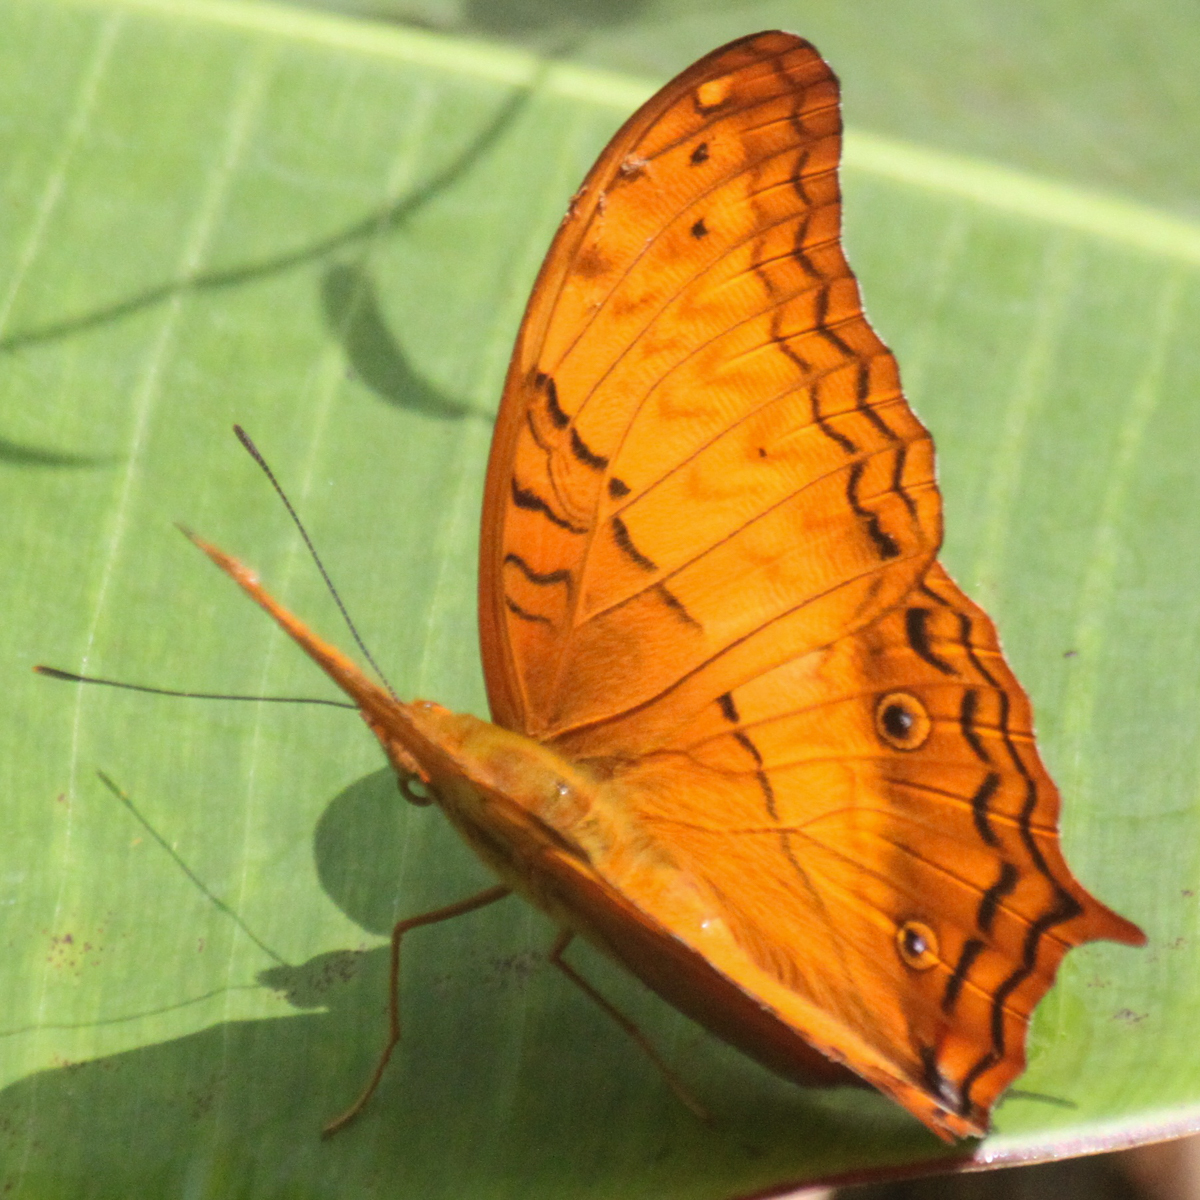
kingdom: Animalia
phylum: Arthropoda
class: Insecta
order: Lepidoptera
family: Nymphalidae
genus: Vindula
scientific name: Vindula erota
